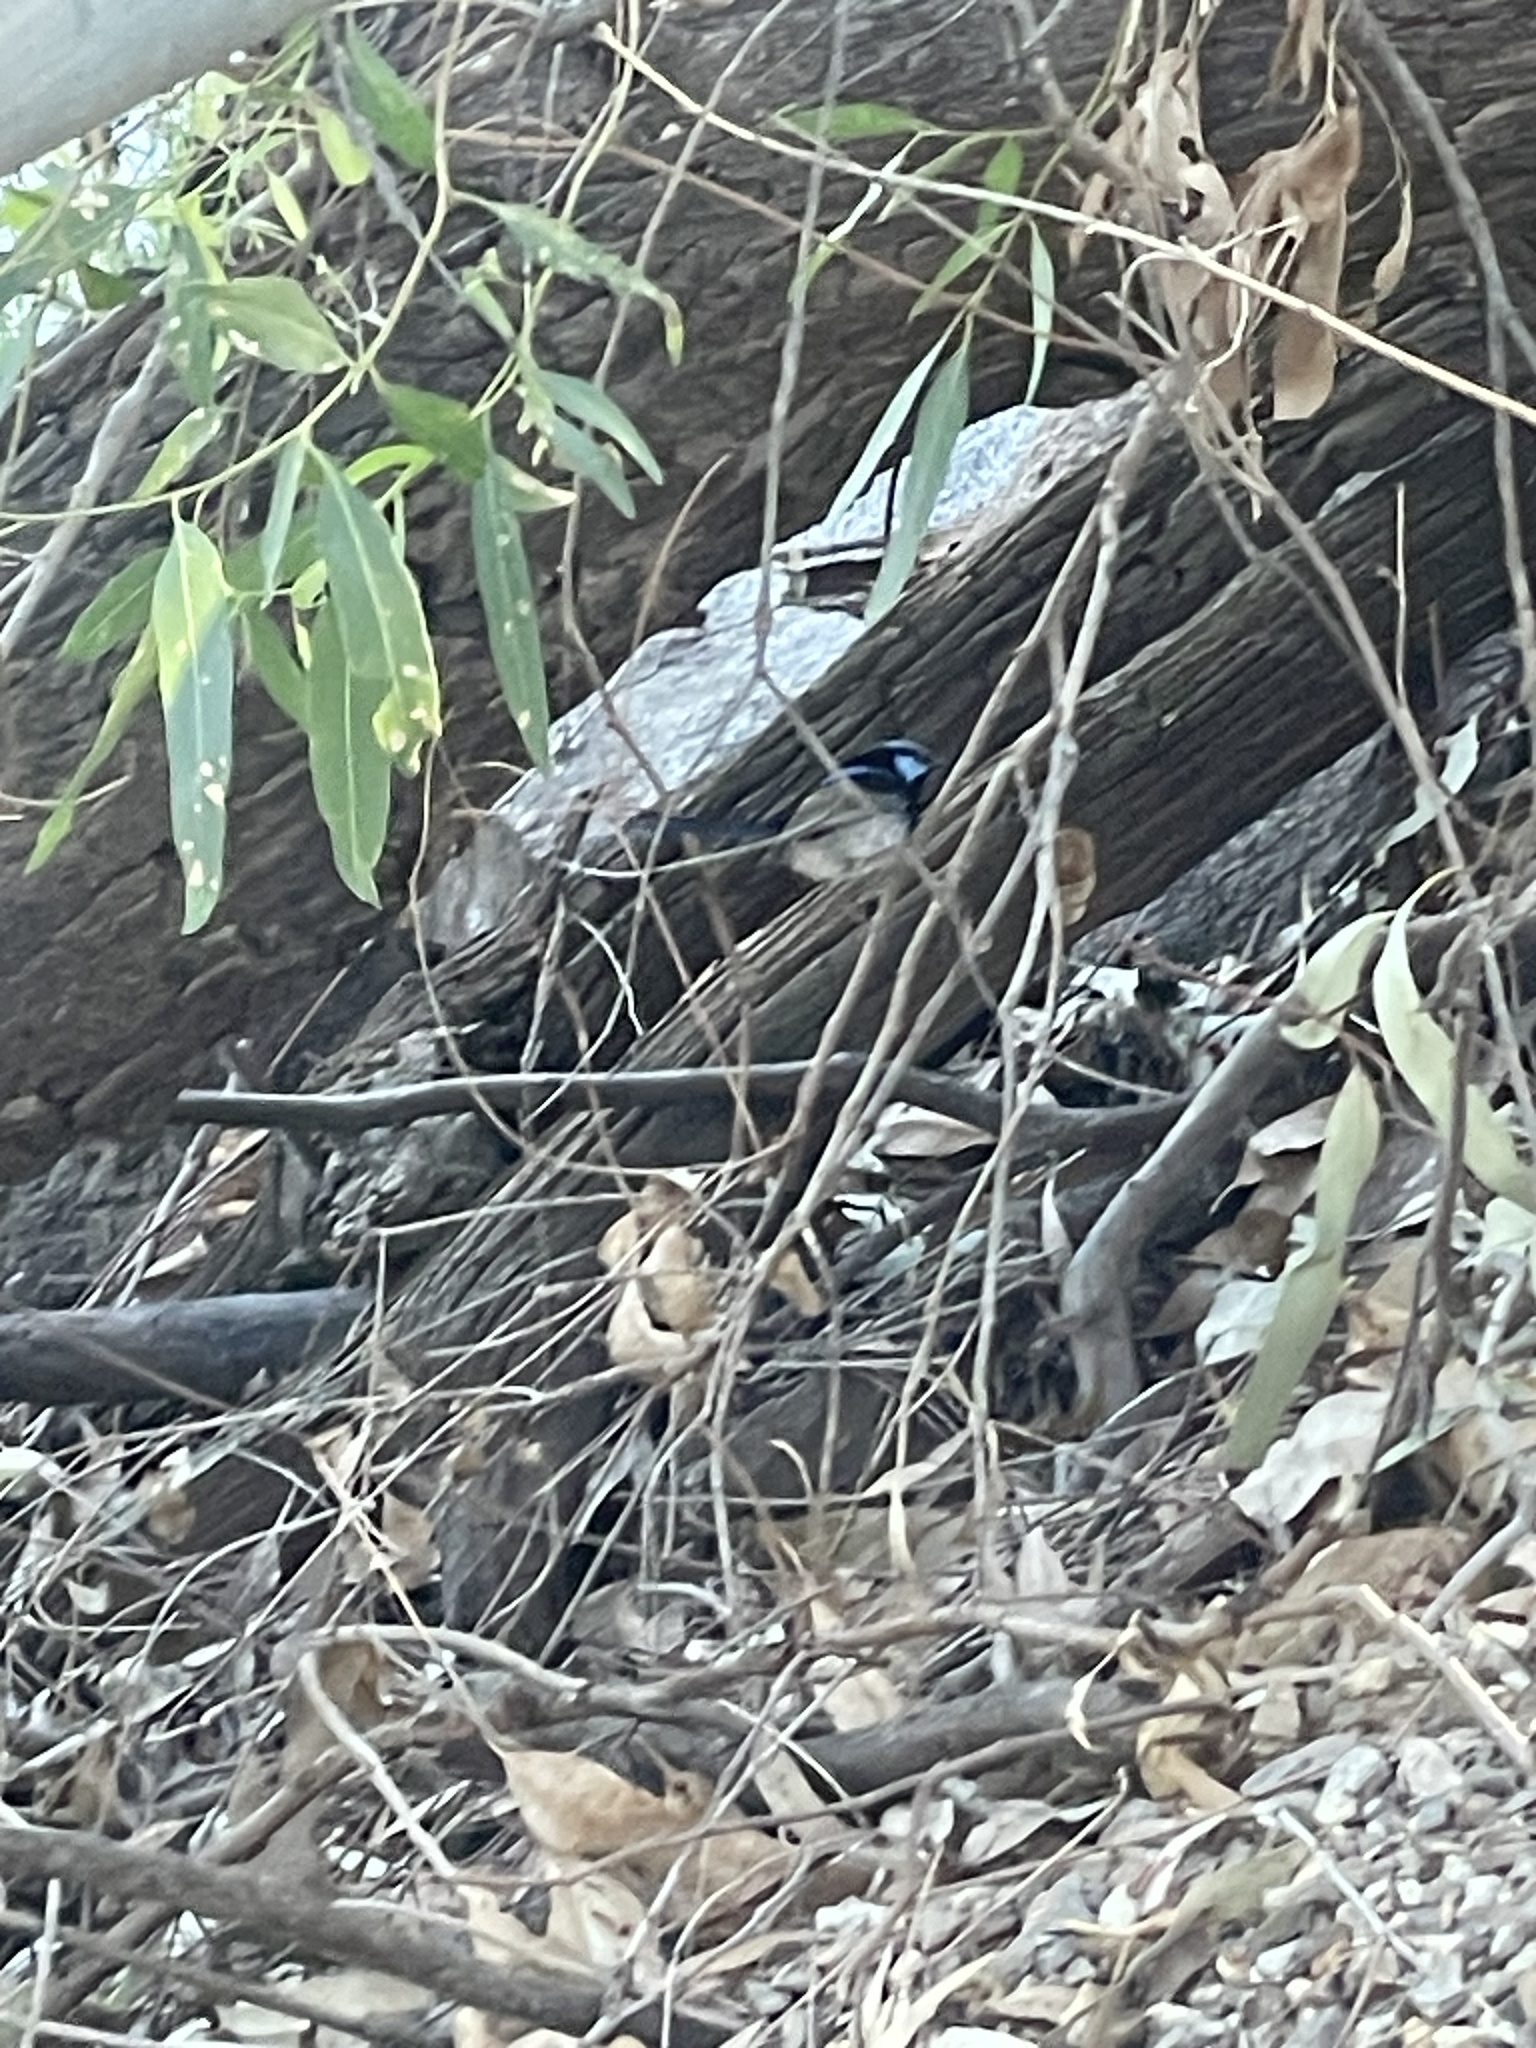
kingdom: Animalia
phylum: Chordata
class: Aves
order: Passeriformes
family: Maluridae
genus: Malurus
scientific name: Malurus cyaneus
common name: Superb fairywren
